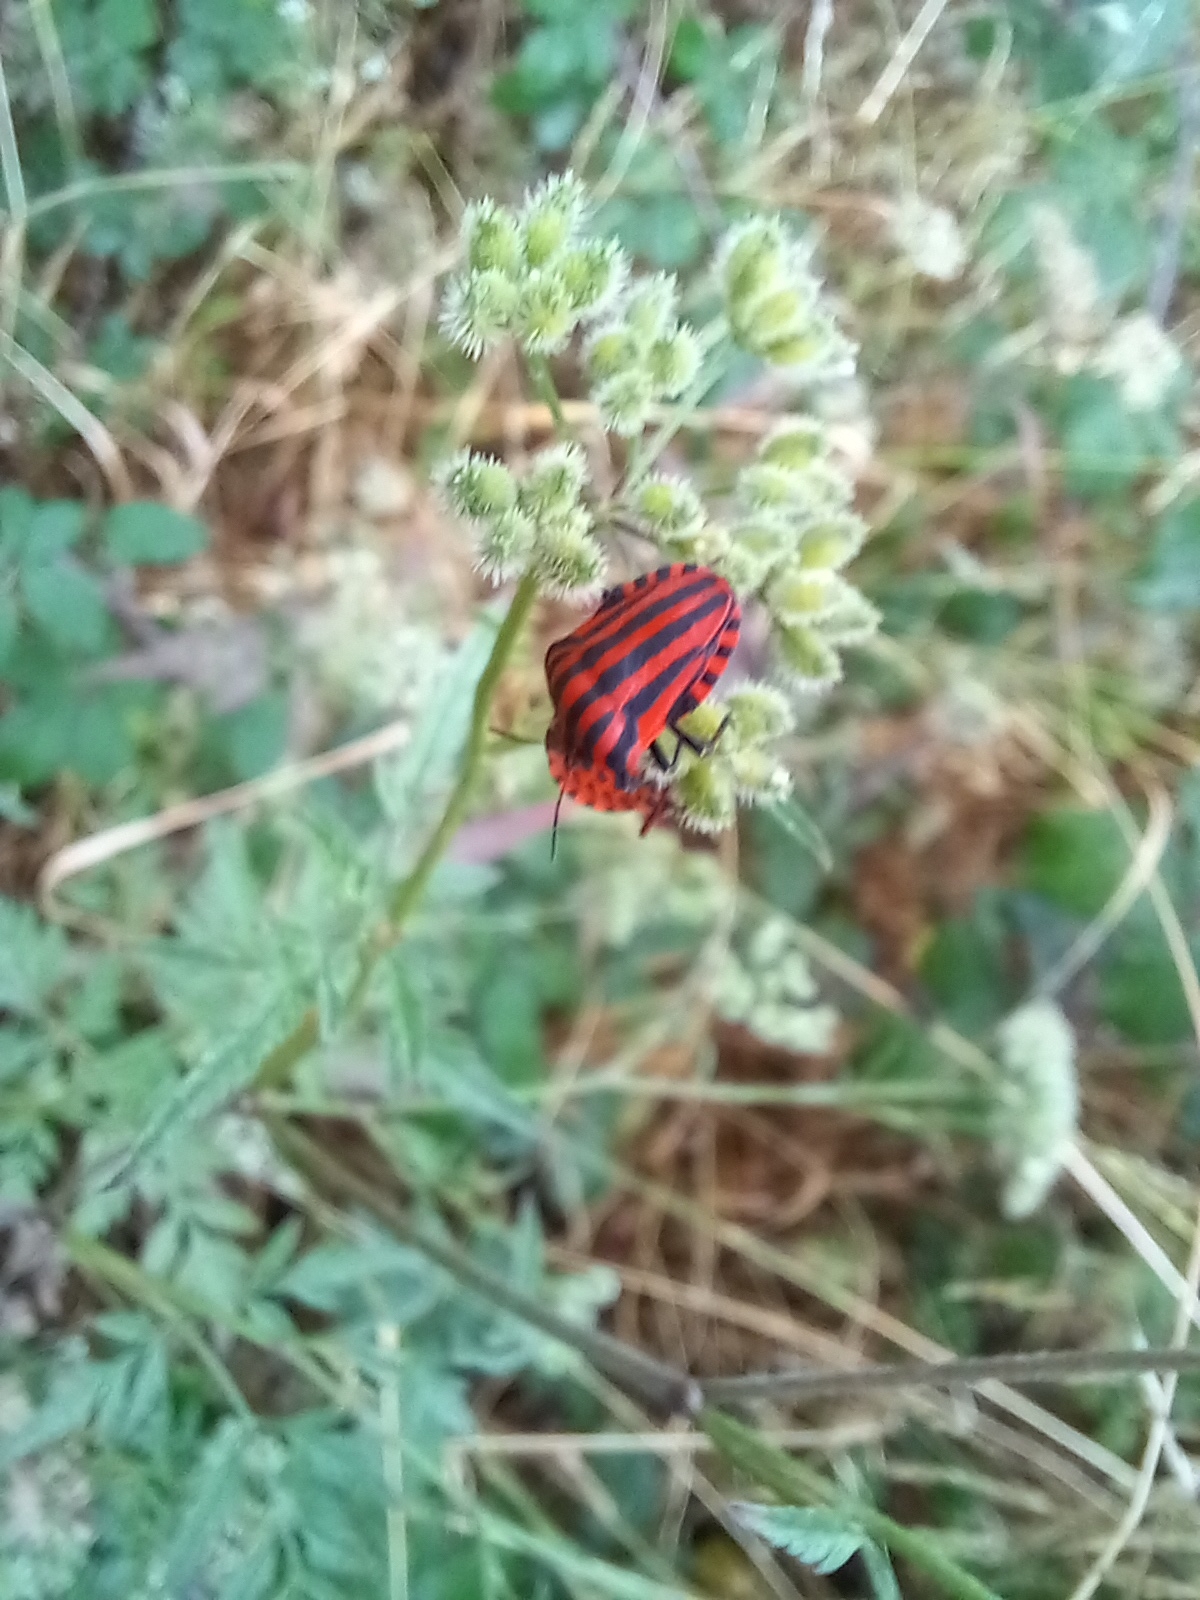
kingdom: Animalia
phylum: Arthropoda
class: Insecta
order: Hemiptera
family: Pentatomidae
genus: Graphosoma
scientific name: Graphosoma italicum
